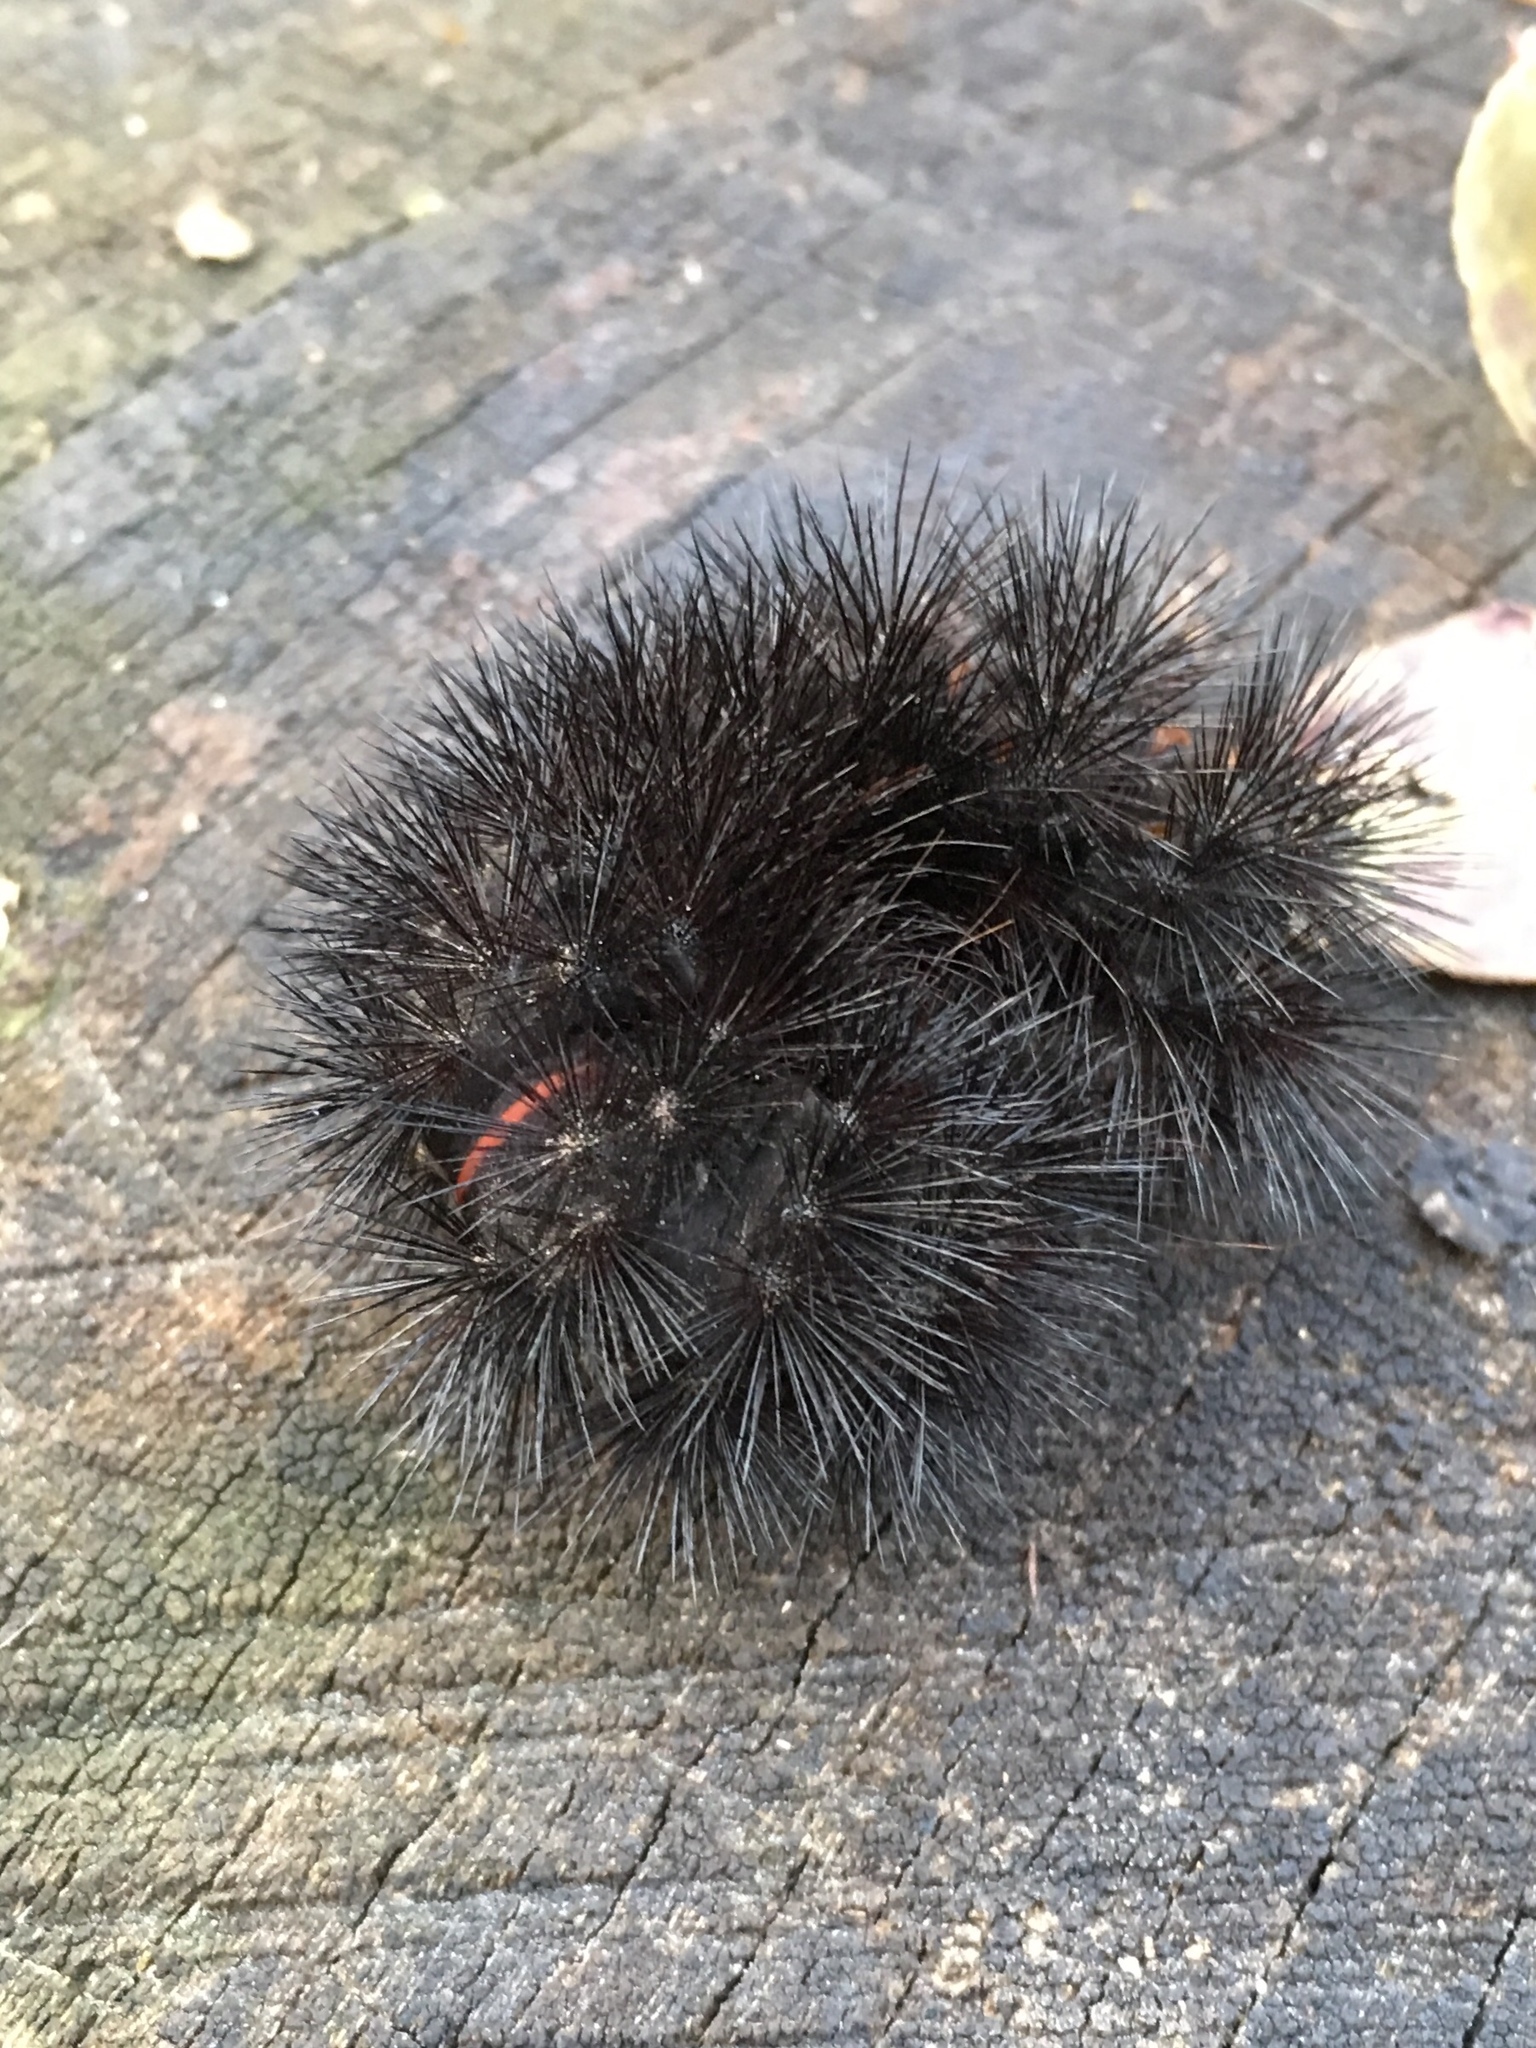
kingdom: Animalia
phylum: Arthropoda
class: Insecta
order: Lepidoptera
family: Erebidae
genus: Hypercompe
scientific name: Hypercompe scribonia
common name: Giant leopard moth
